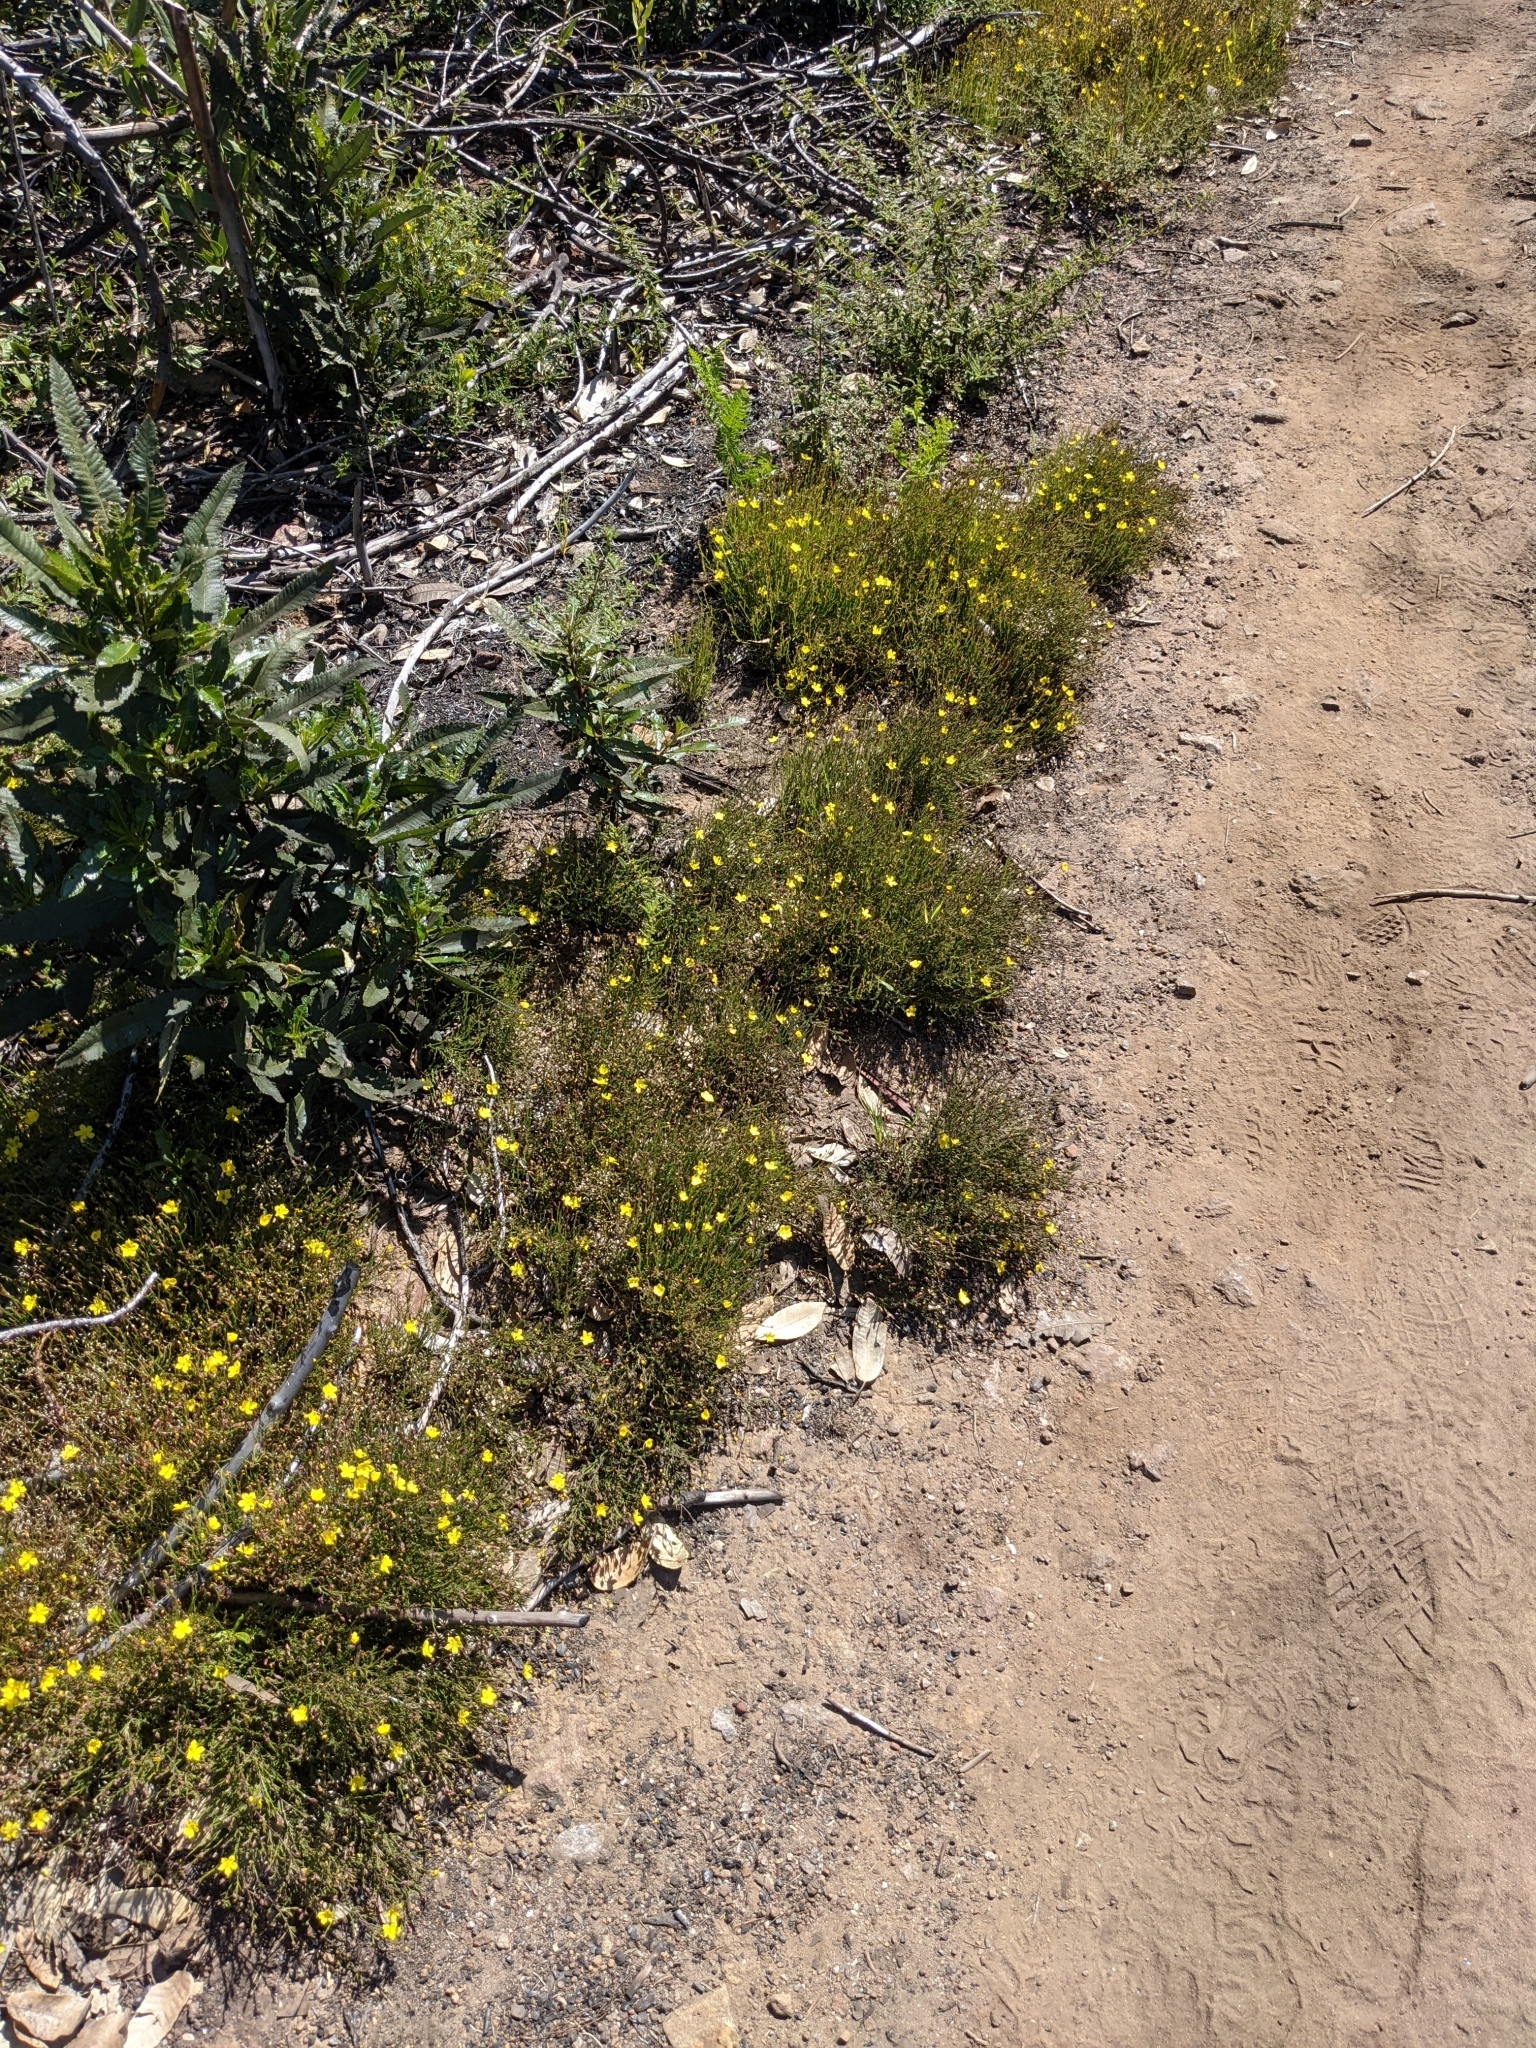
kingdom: Plantae
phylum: Tracheophyta
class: Magnoliopsida
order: Malvales
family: Cistaceae
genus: Crocanthemum
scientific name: Crocanthemum scoparium
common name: Broom-rose
